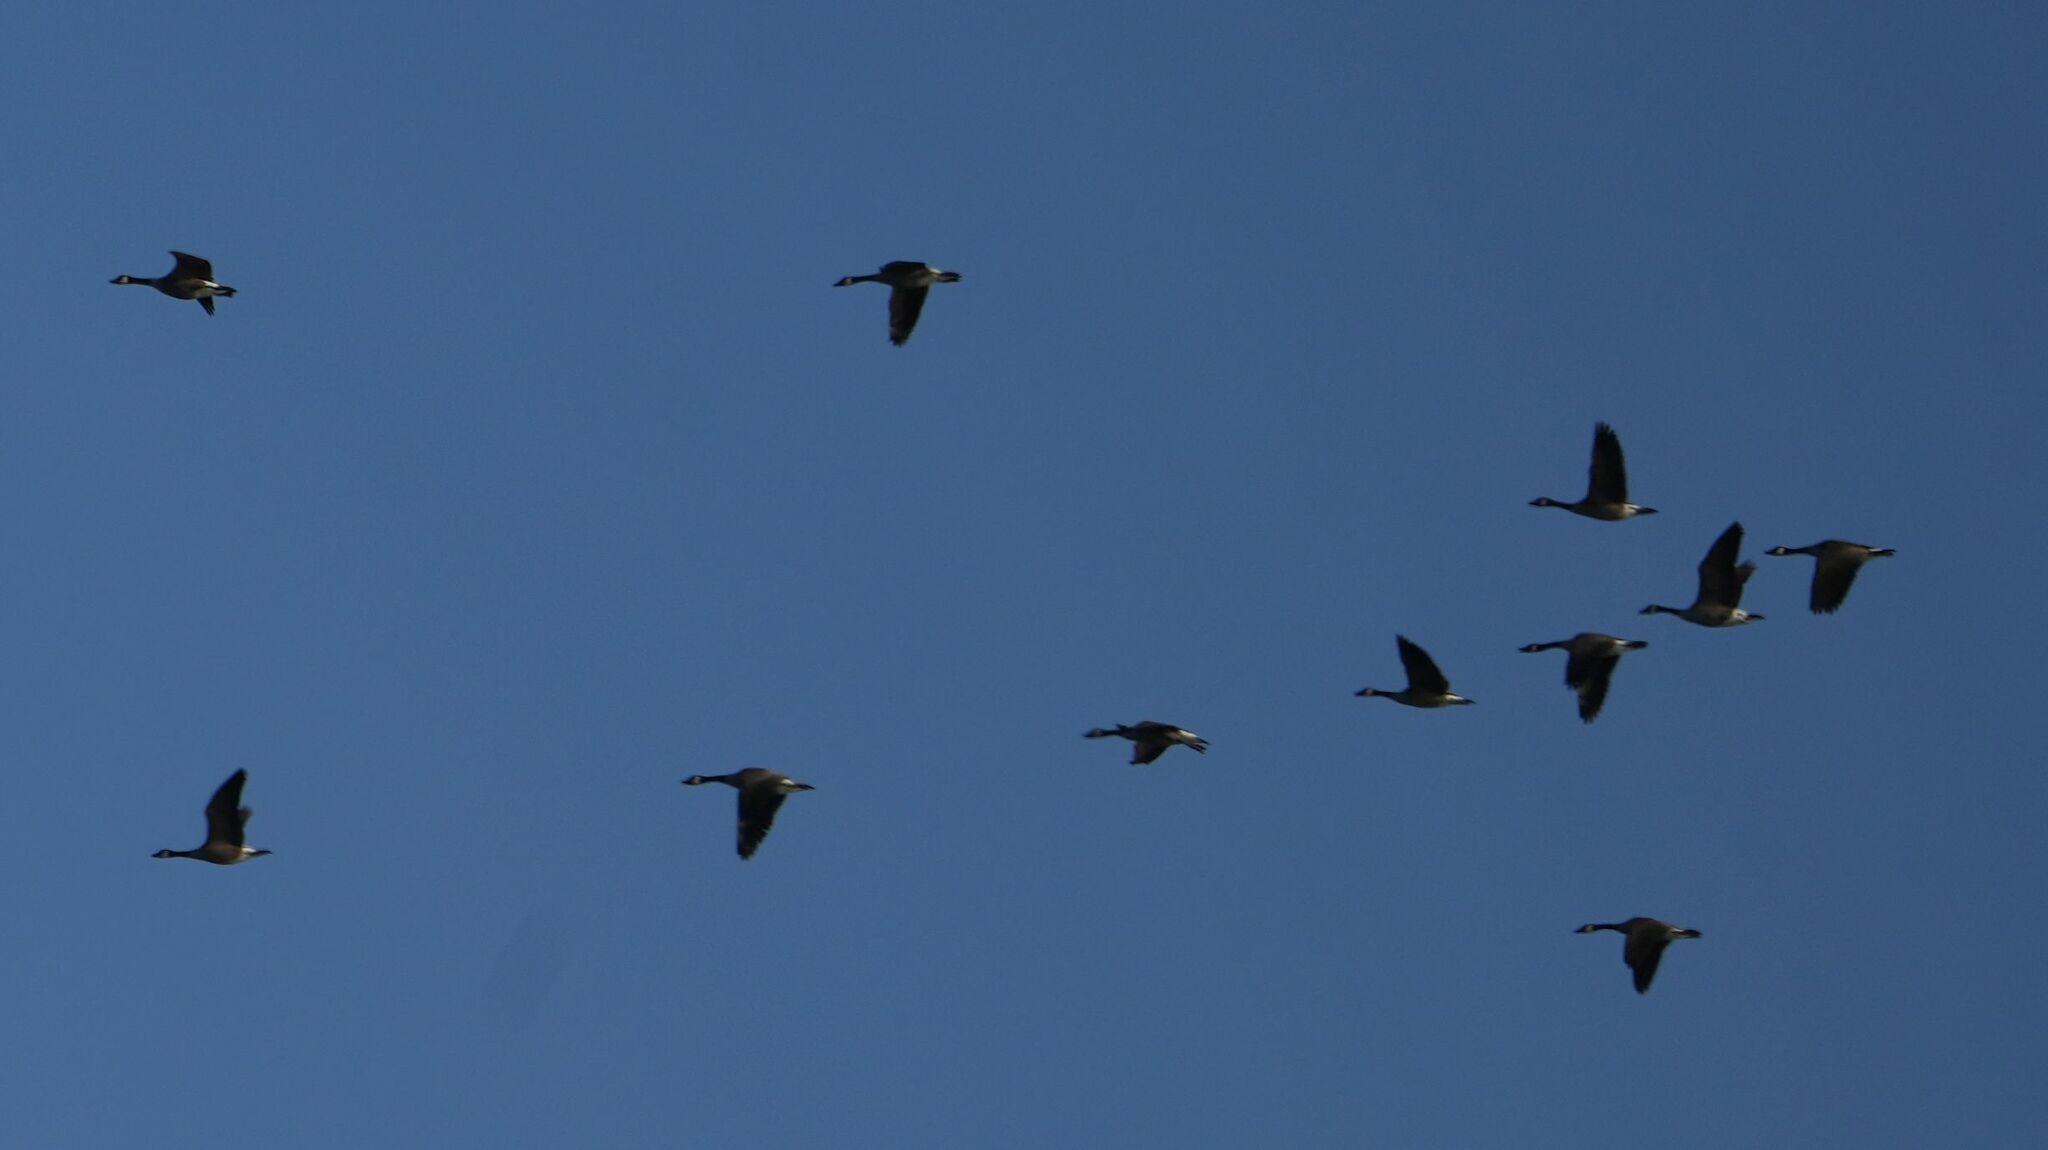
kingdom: Animalia
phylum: Chordata
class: Aves
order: Anseriformes
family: Anatidae
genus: Branta
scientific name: Branta canadensis
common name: Canada goose
